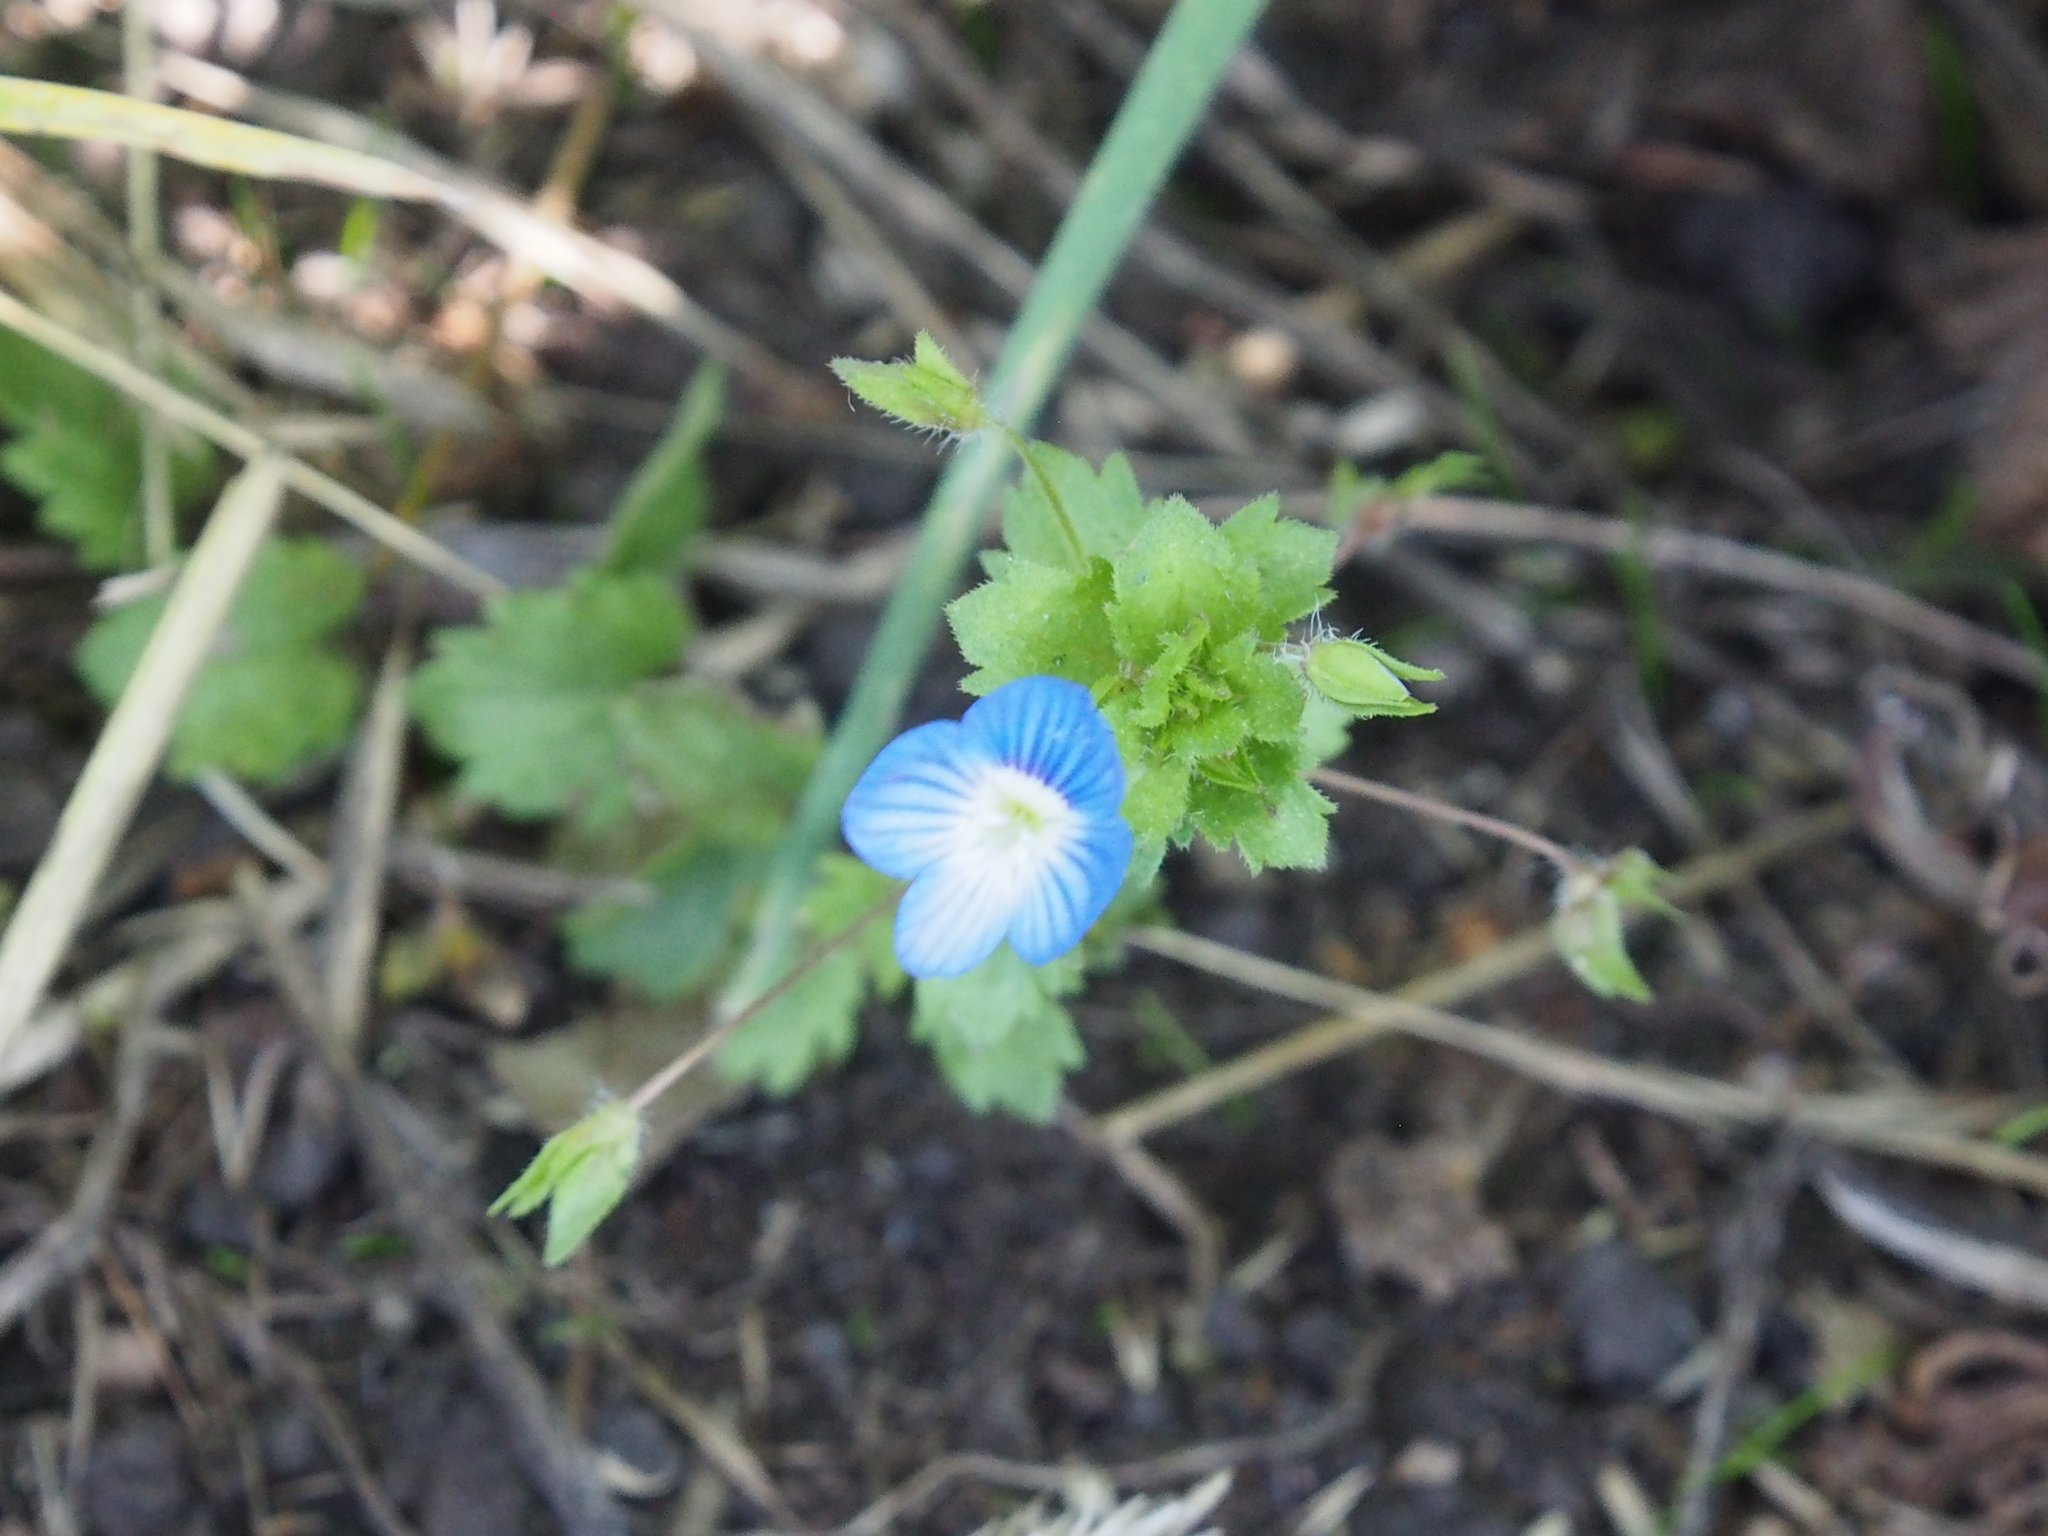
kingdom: Plantae
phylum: Tracheophyta
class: Magnoliopsida
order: Lamiales
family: Plantaginaceae
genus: Veronica
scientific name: Veronica persica
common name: Common field-speedwell
